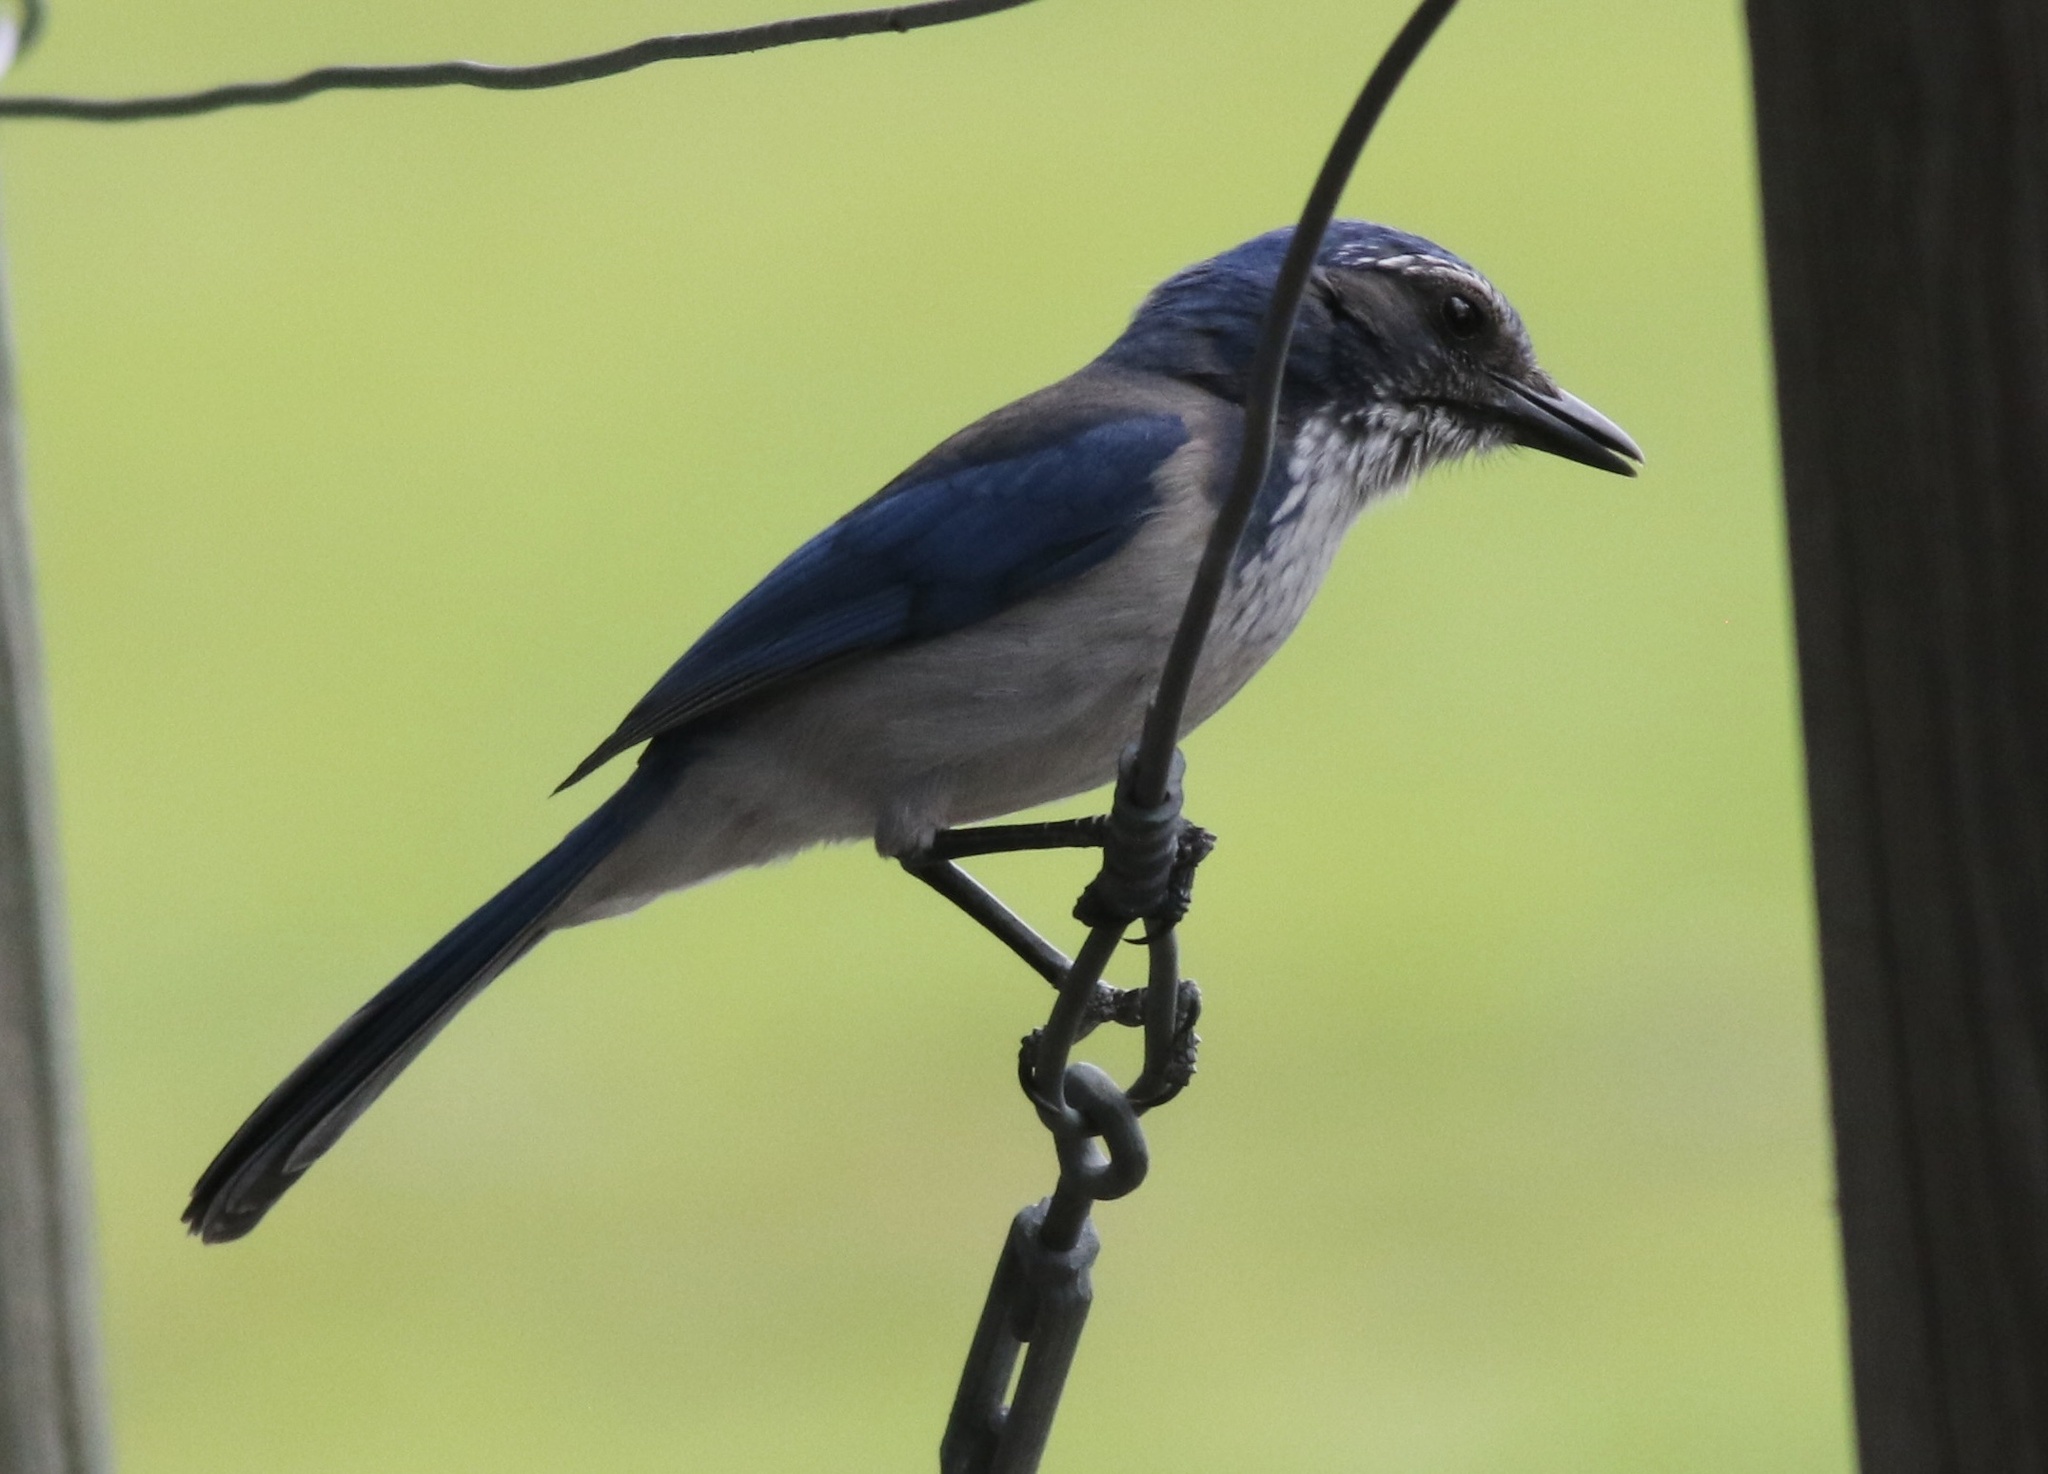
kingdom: Animalia
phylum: Chordata
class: Aves
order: Passeriformes
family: Corvidae
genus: Aphelocoma
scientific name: Aphelocoma californica
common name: California scrub-jay
